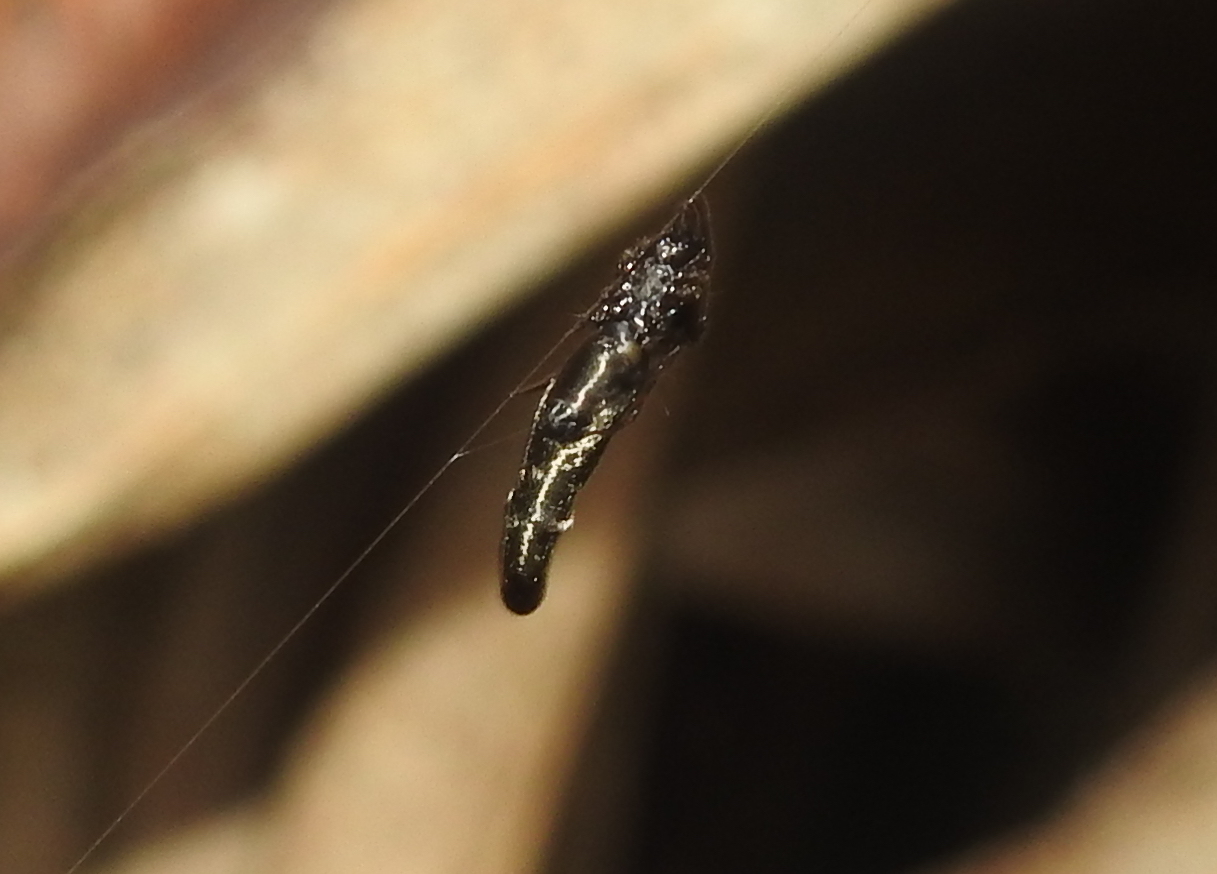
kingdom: Animalia
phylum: Arthropoda
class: Arachnida
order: Araneae
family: Araneidae
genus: Cyclosa
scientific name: Cyclosa bifida
